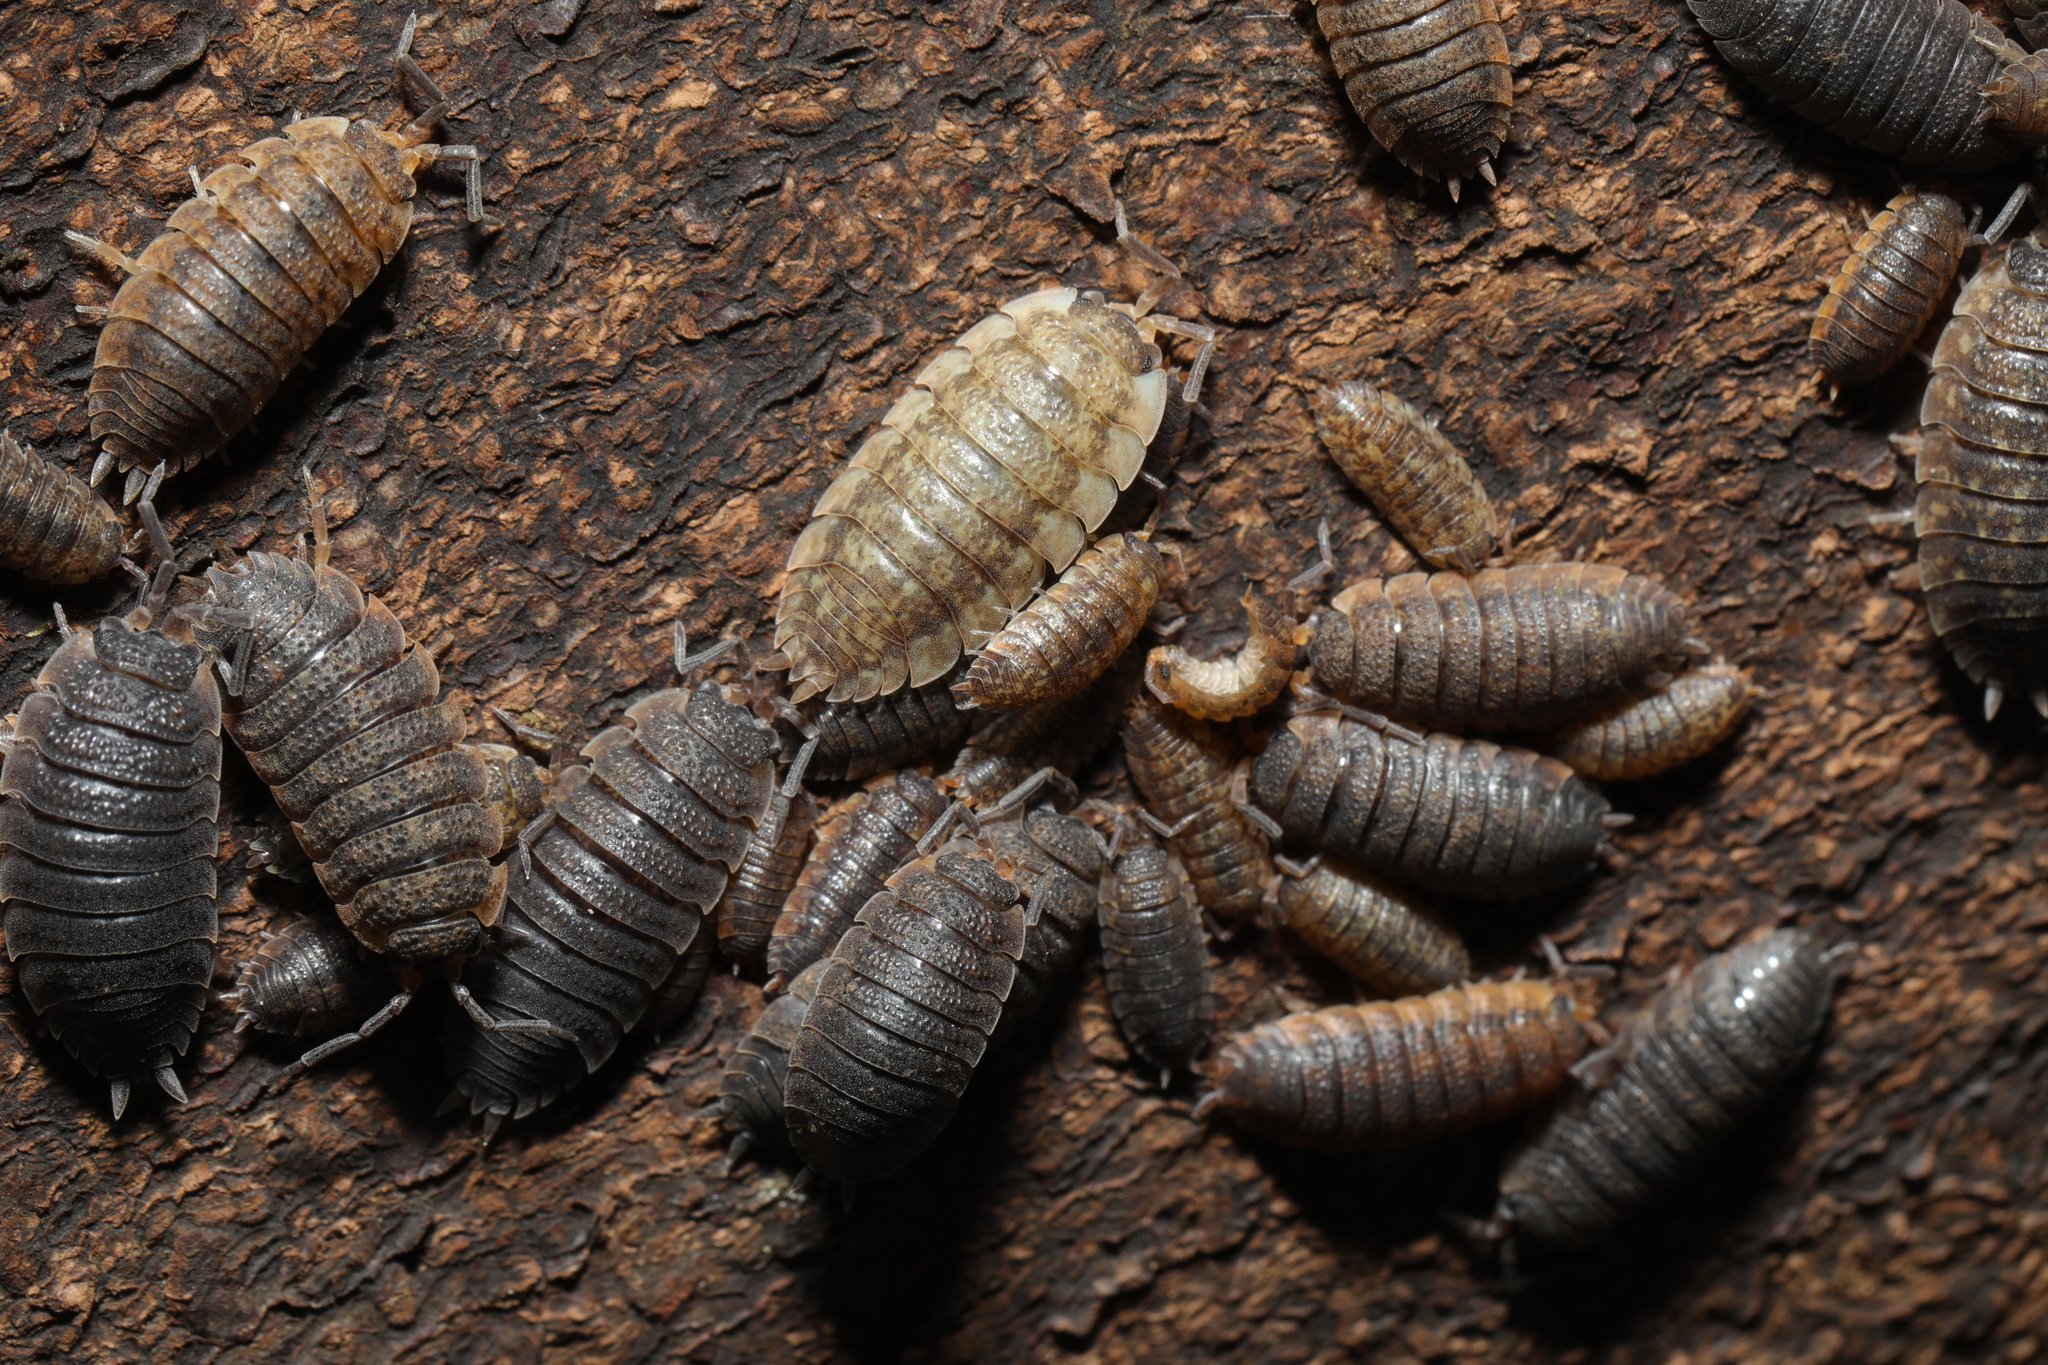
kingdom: Animalia
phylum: Arthropoda
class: Malacostraca
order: Isopoda
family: Porcellionidae
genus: Porcellio
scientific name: Porcellio scaber
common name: Common rough woodlouse
